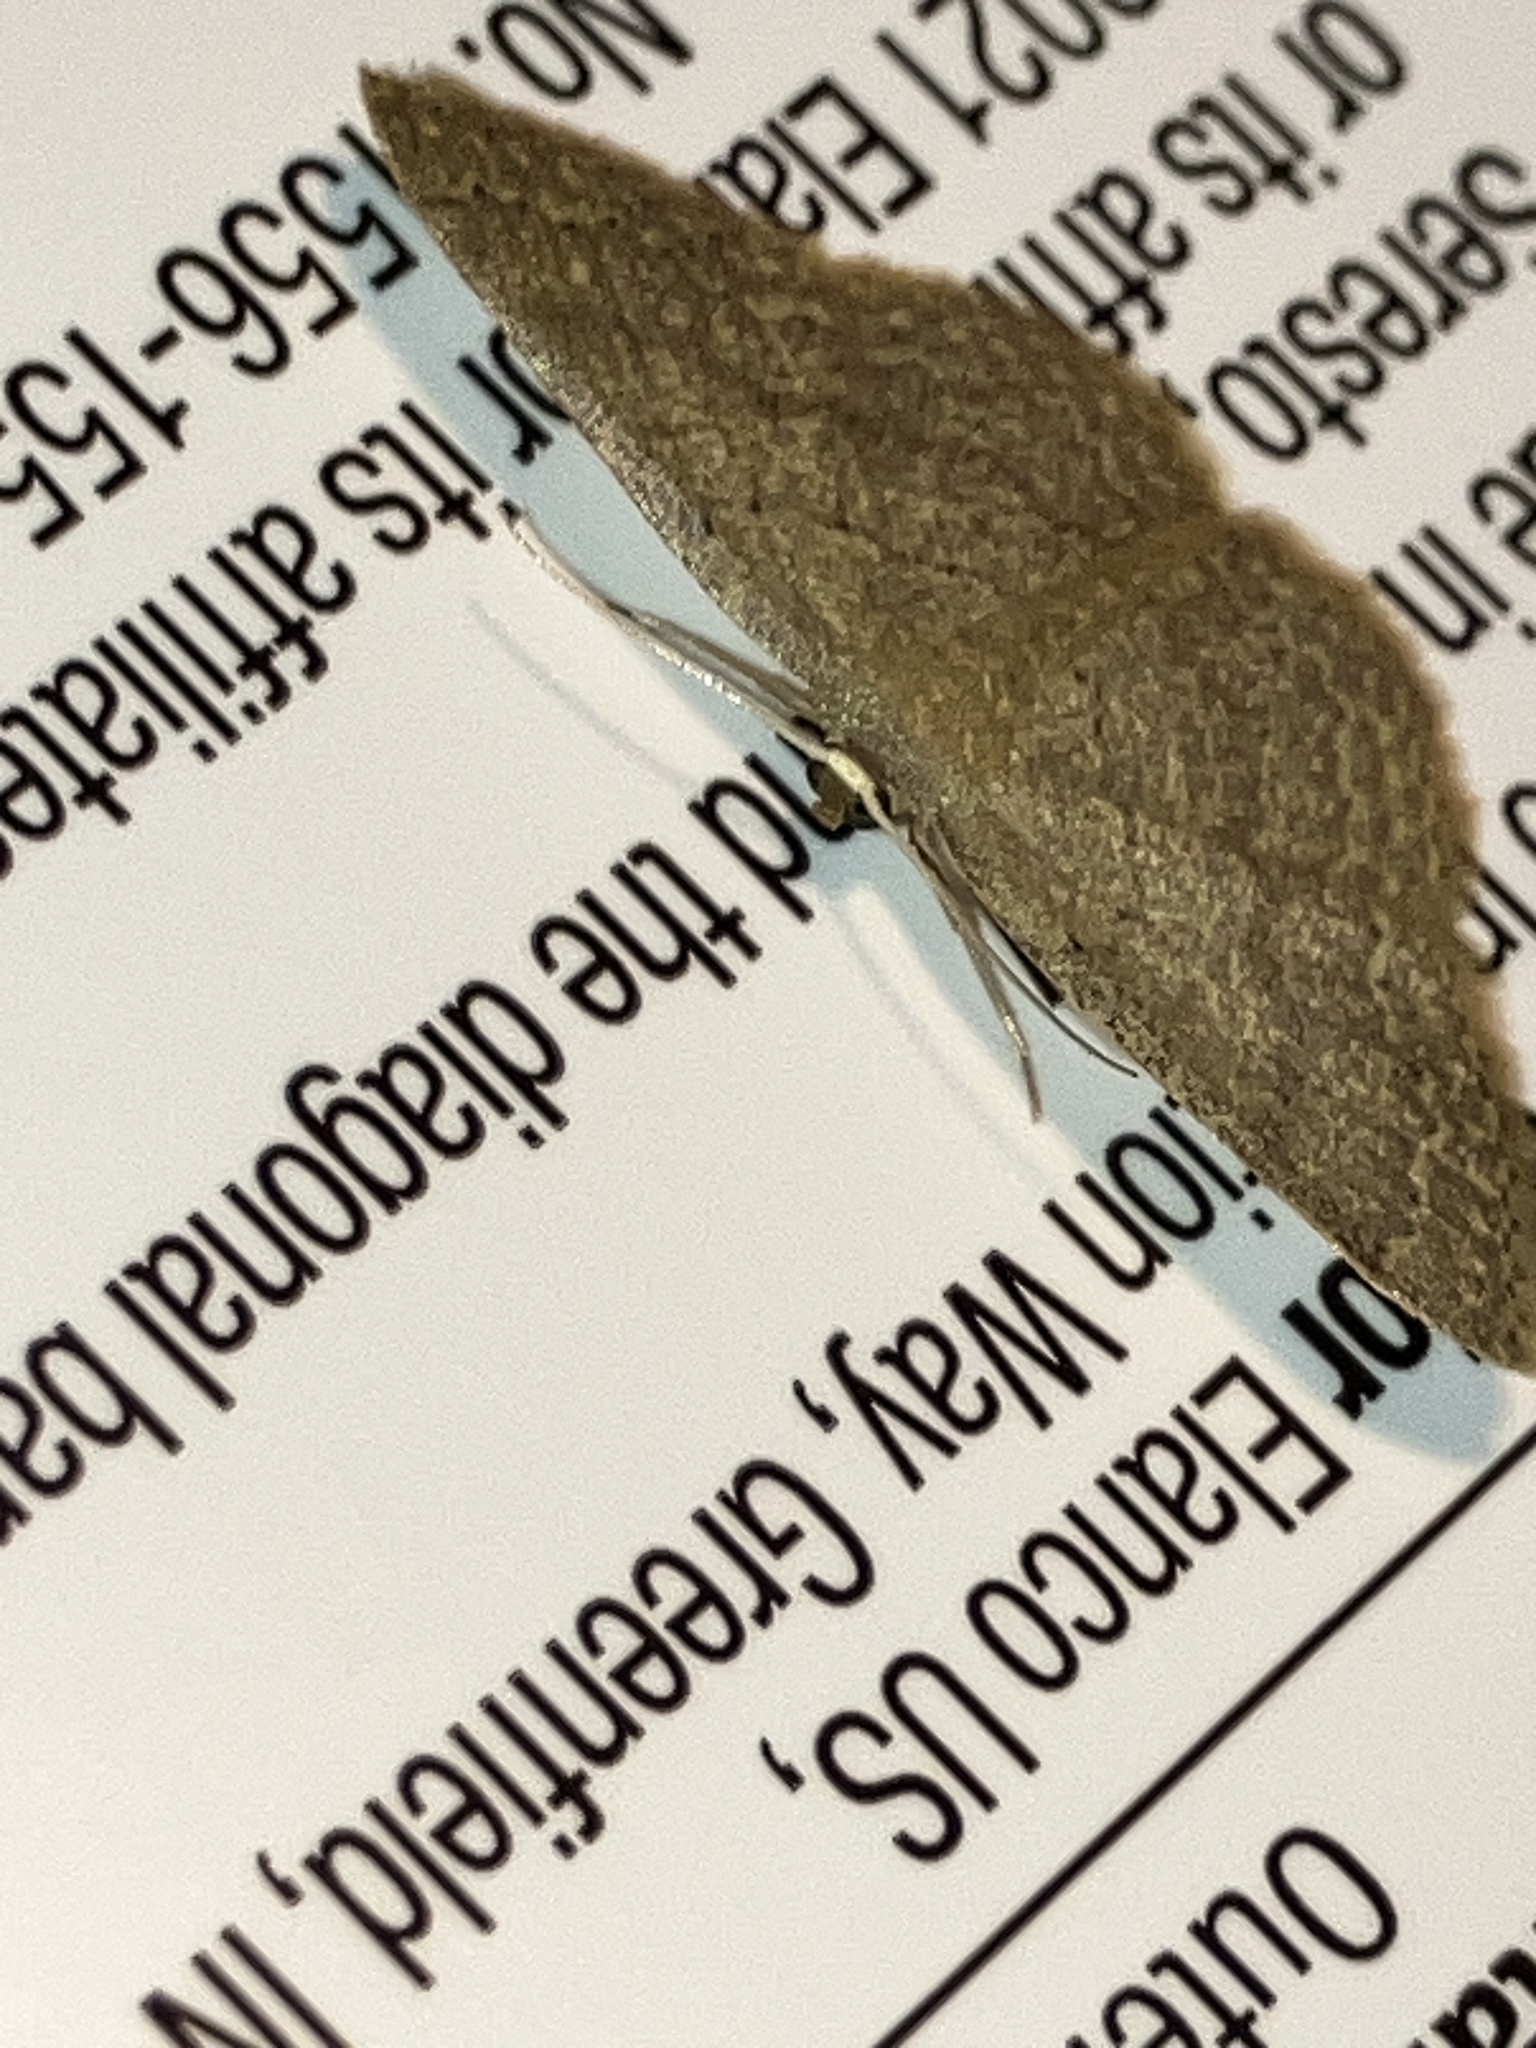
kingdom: Animalia
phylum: Arthropoda
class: Insecta
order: Lepidoptera
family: Geometridae
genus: Pleuroprucha
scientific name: Pleuroprucha insulsaria
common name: Common tan wave
